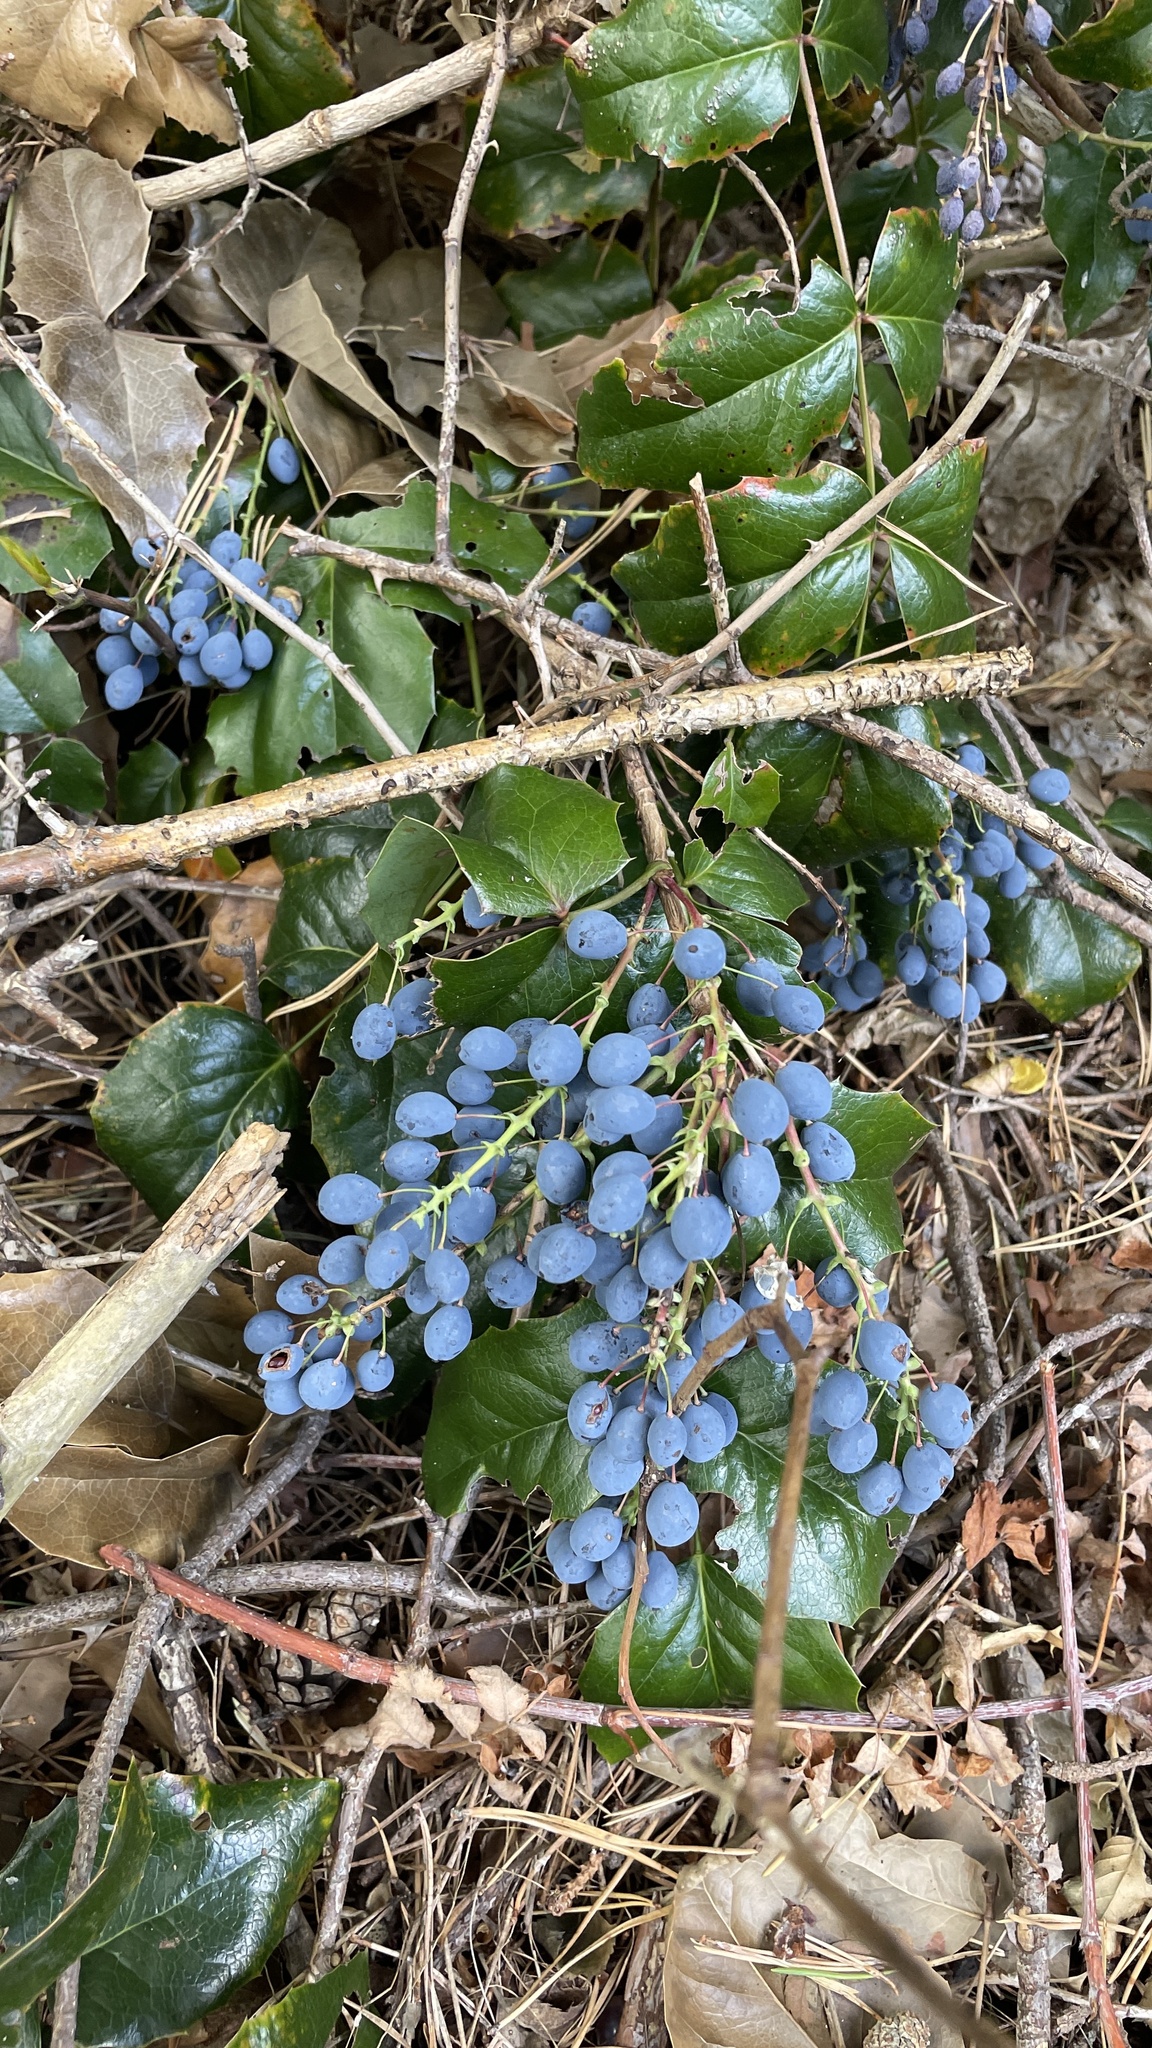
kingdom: Plantae
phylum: Tracheophyta
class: Magnoliopsida
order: Ranunculales
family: Berberidaceae
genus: Mahonia
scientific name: Mahonia aquifolium
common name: Oregon-grape
